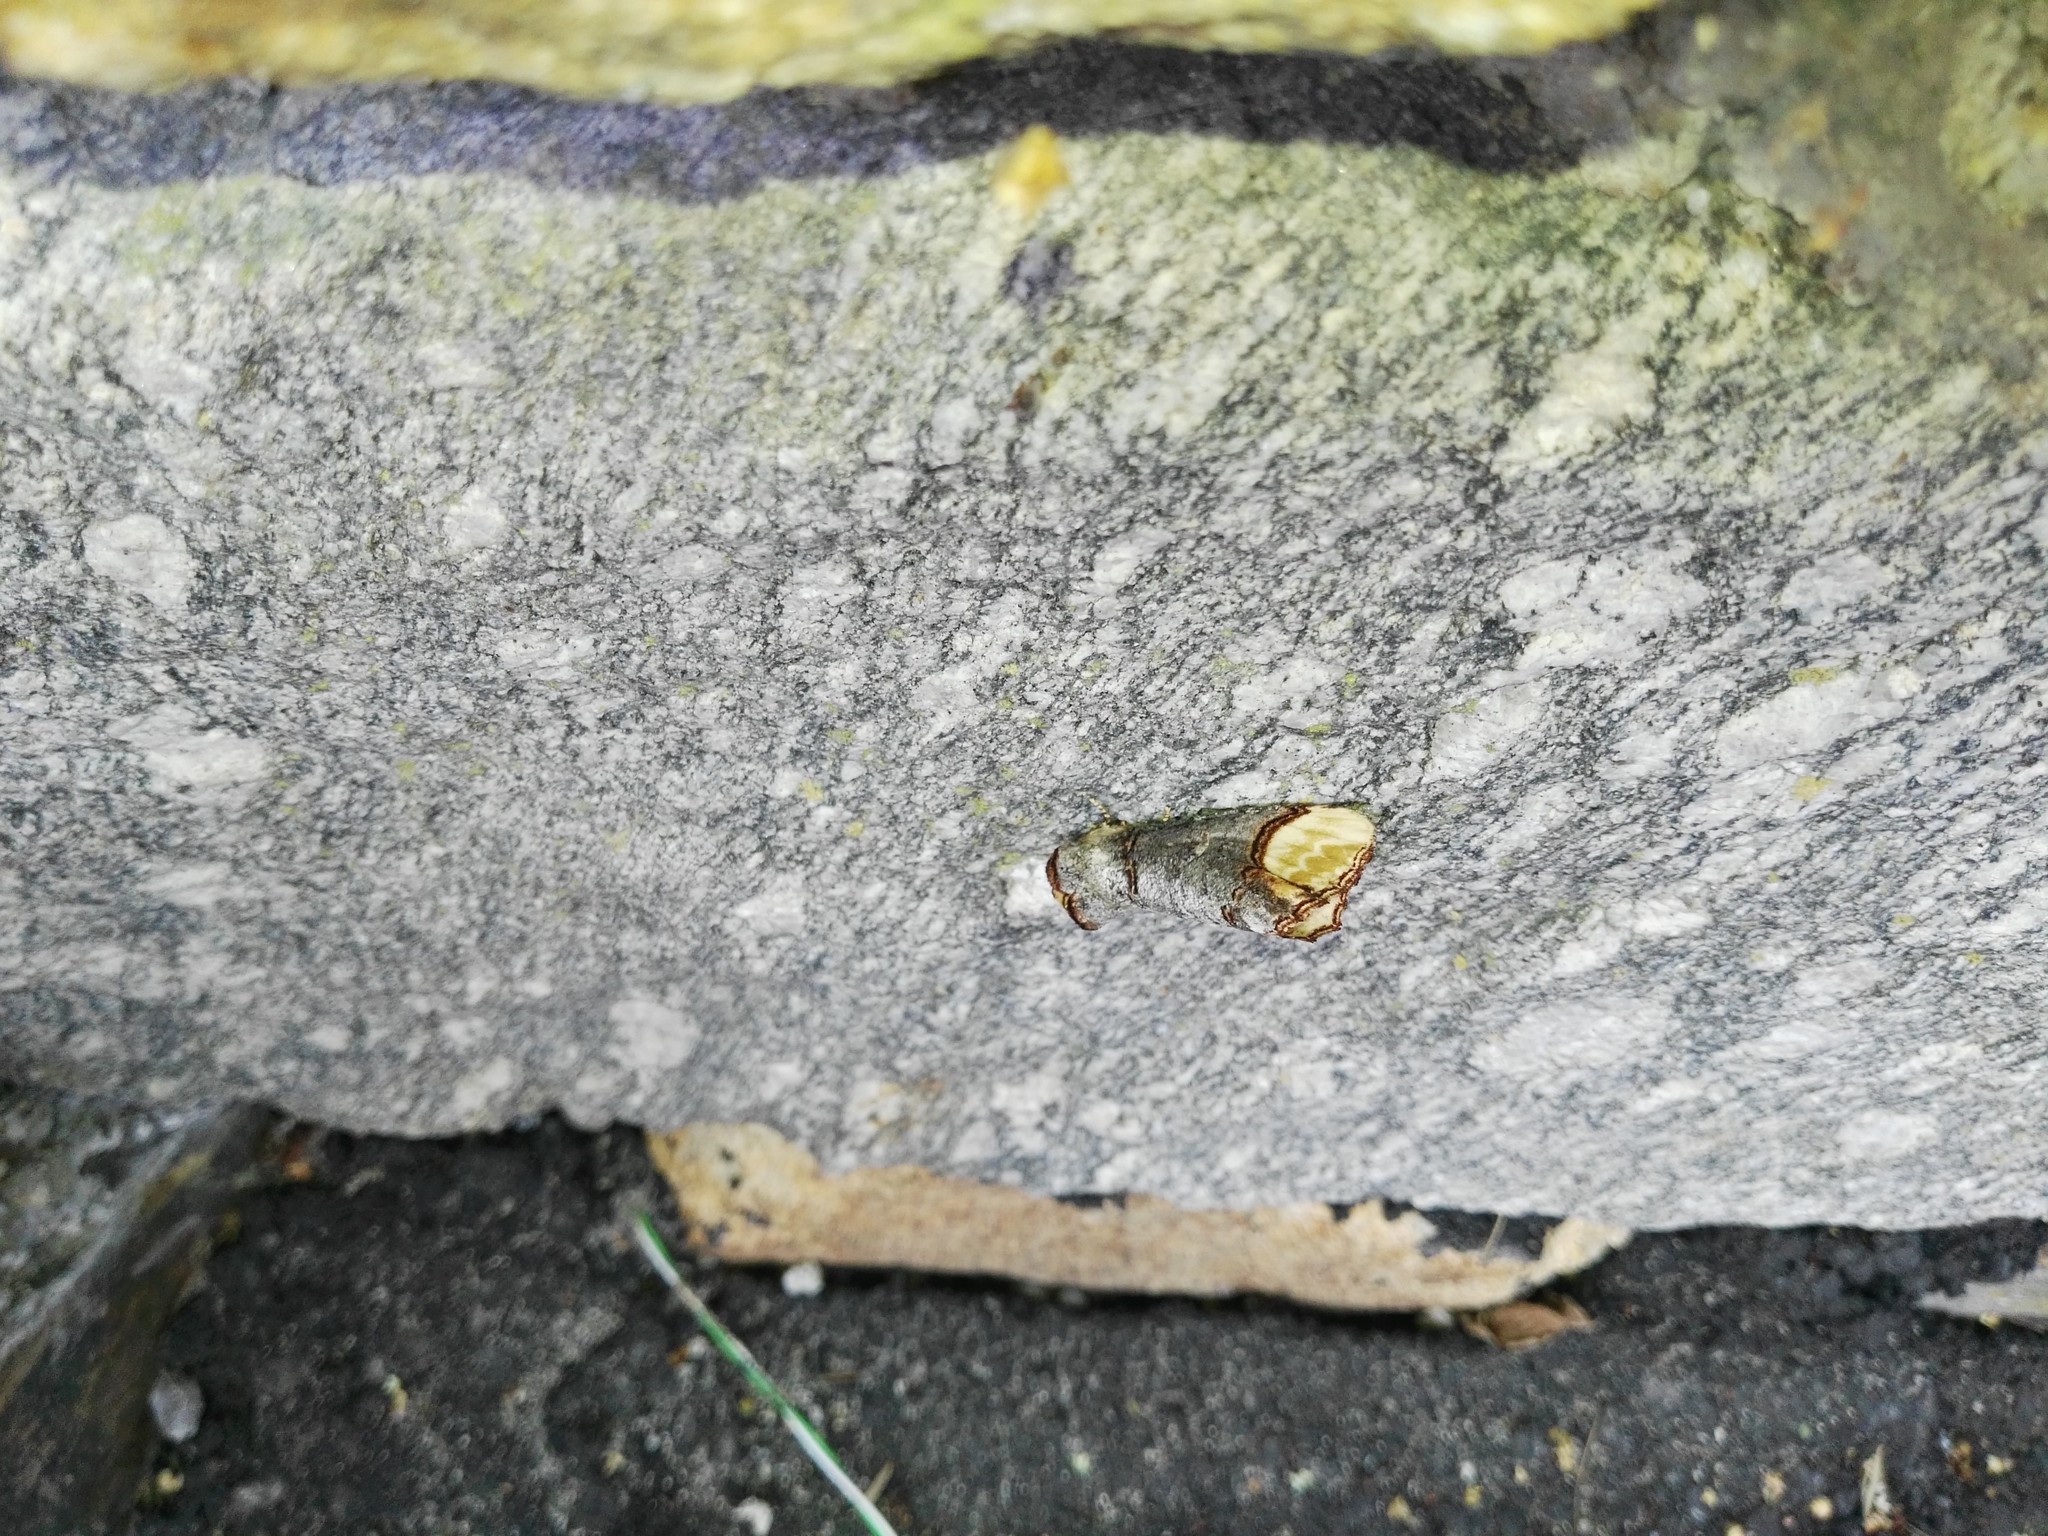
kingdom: Animalia
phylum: Arthropoda
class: Insecta
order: Lepidoptera
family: Notodontidae
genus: Phalera
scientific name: Phalera bucephala
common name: Buff-tip
